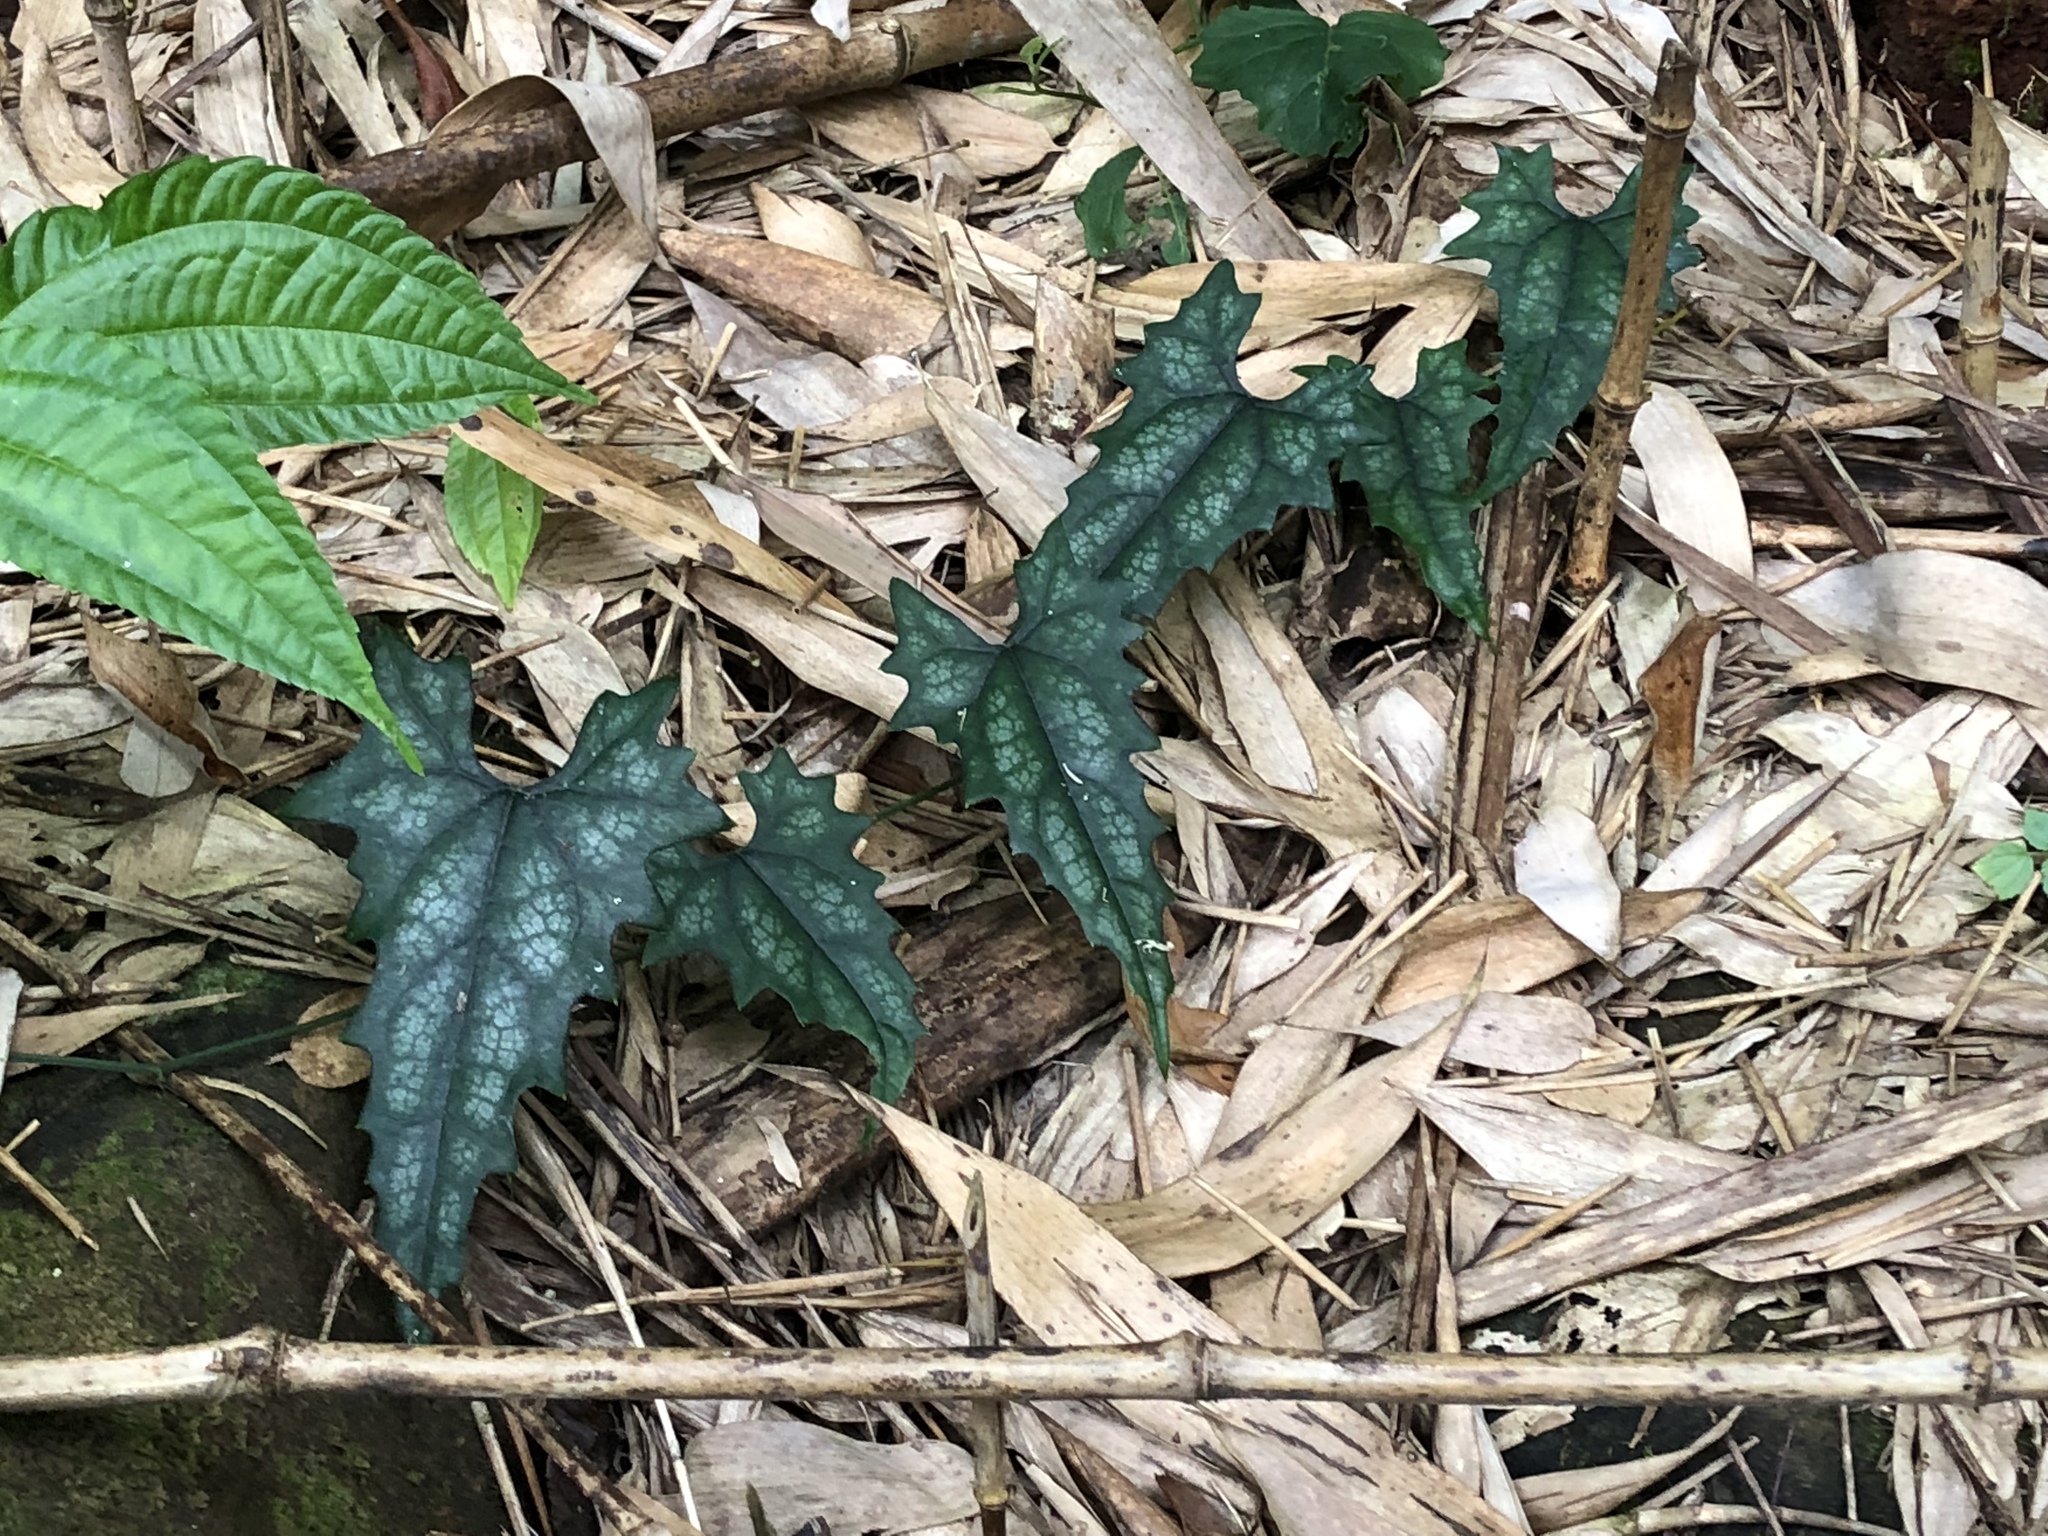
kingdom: Plantae
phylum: Tracheophyta
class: Magnoliopsida
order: Cucurbitales
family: Cucurbitaceae
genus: Trichosanthes
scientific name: Trichosanthes homophylla
